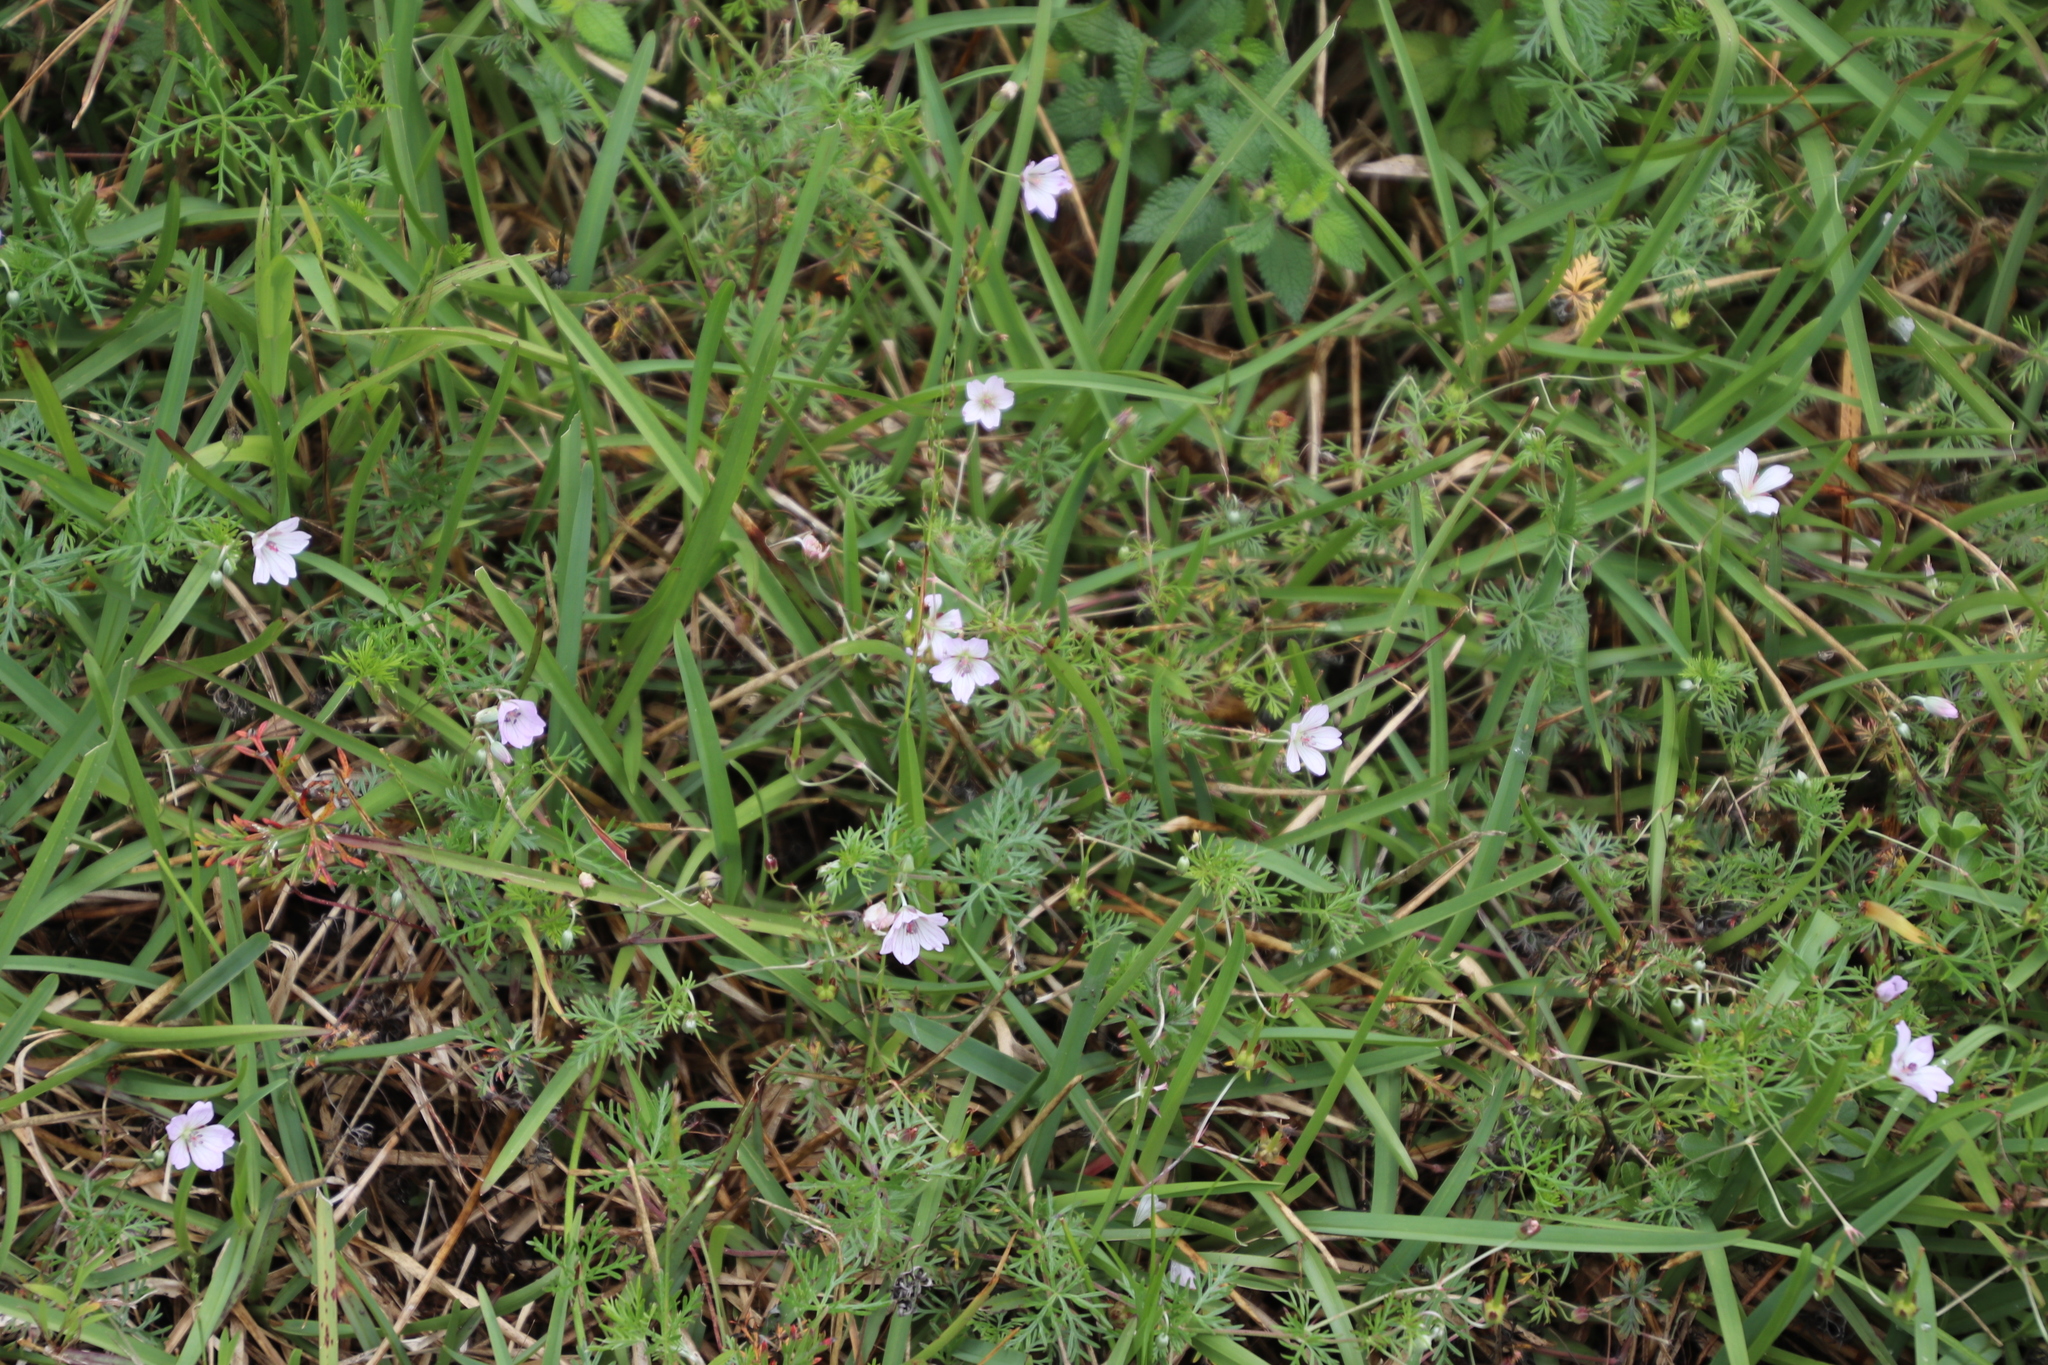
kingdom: Plantae
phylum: Tracheophyta
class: Magnoliopsida
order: Geraniales
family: Geraniaceae
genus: Geranium
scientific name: Geranium incanum
